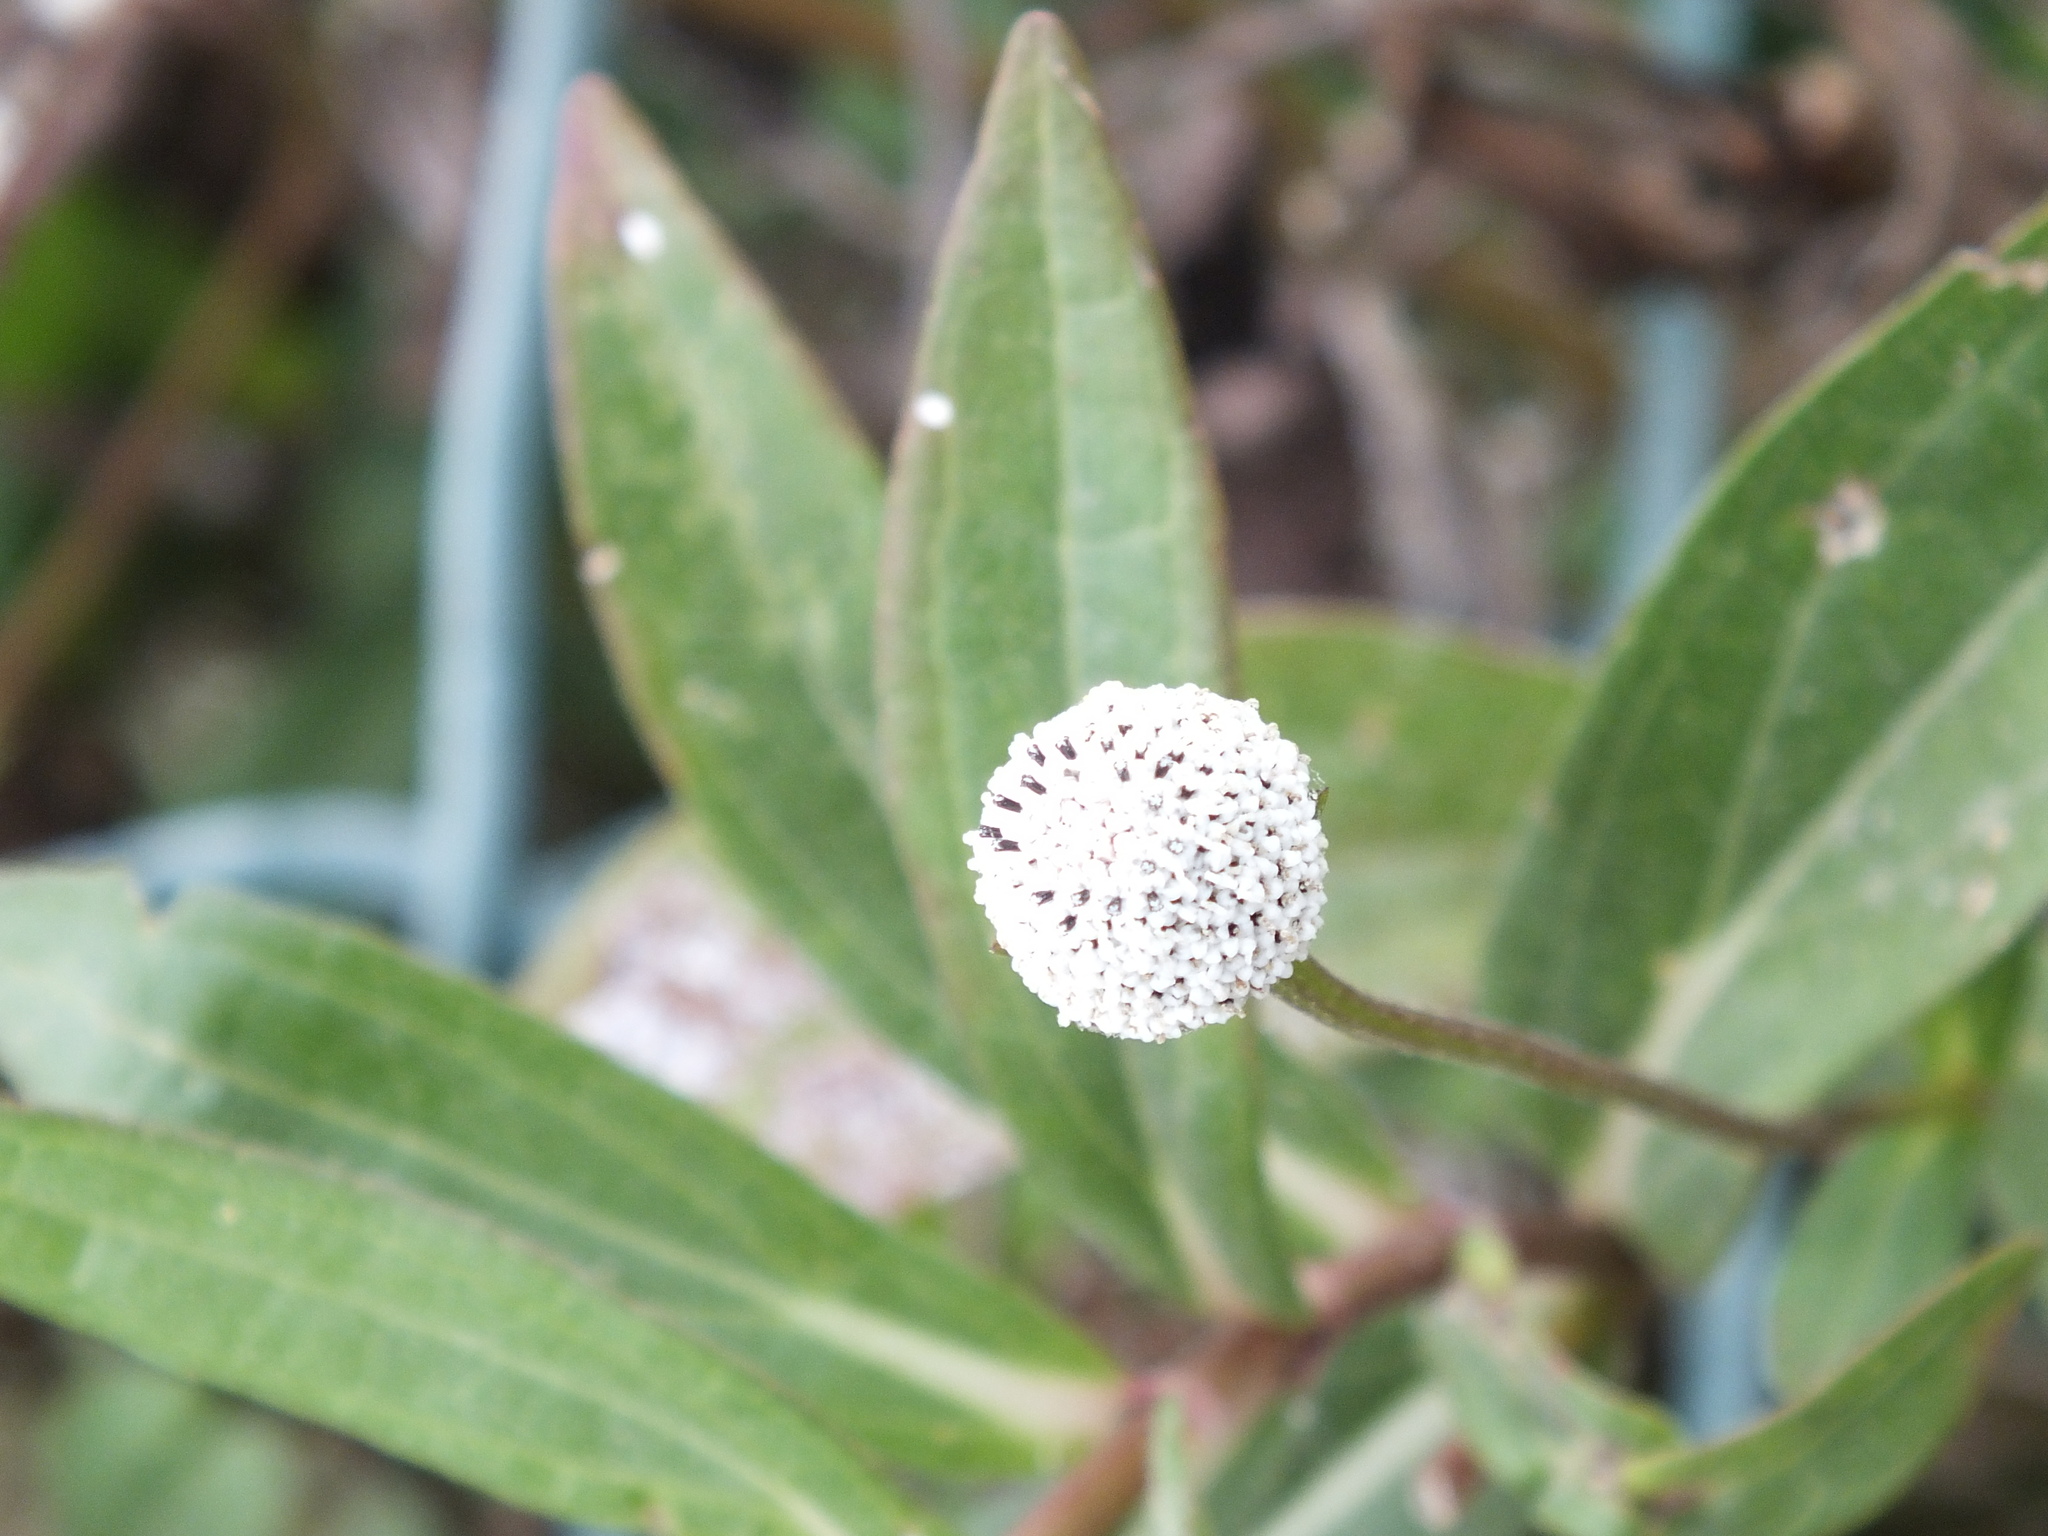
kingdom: Plantae
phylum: Tracheophyta
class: Magnoliopsida
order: Asterales
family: Asteraceae
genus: Spilanthes
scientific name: Spilanthes urens
